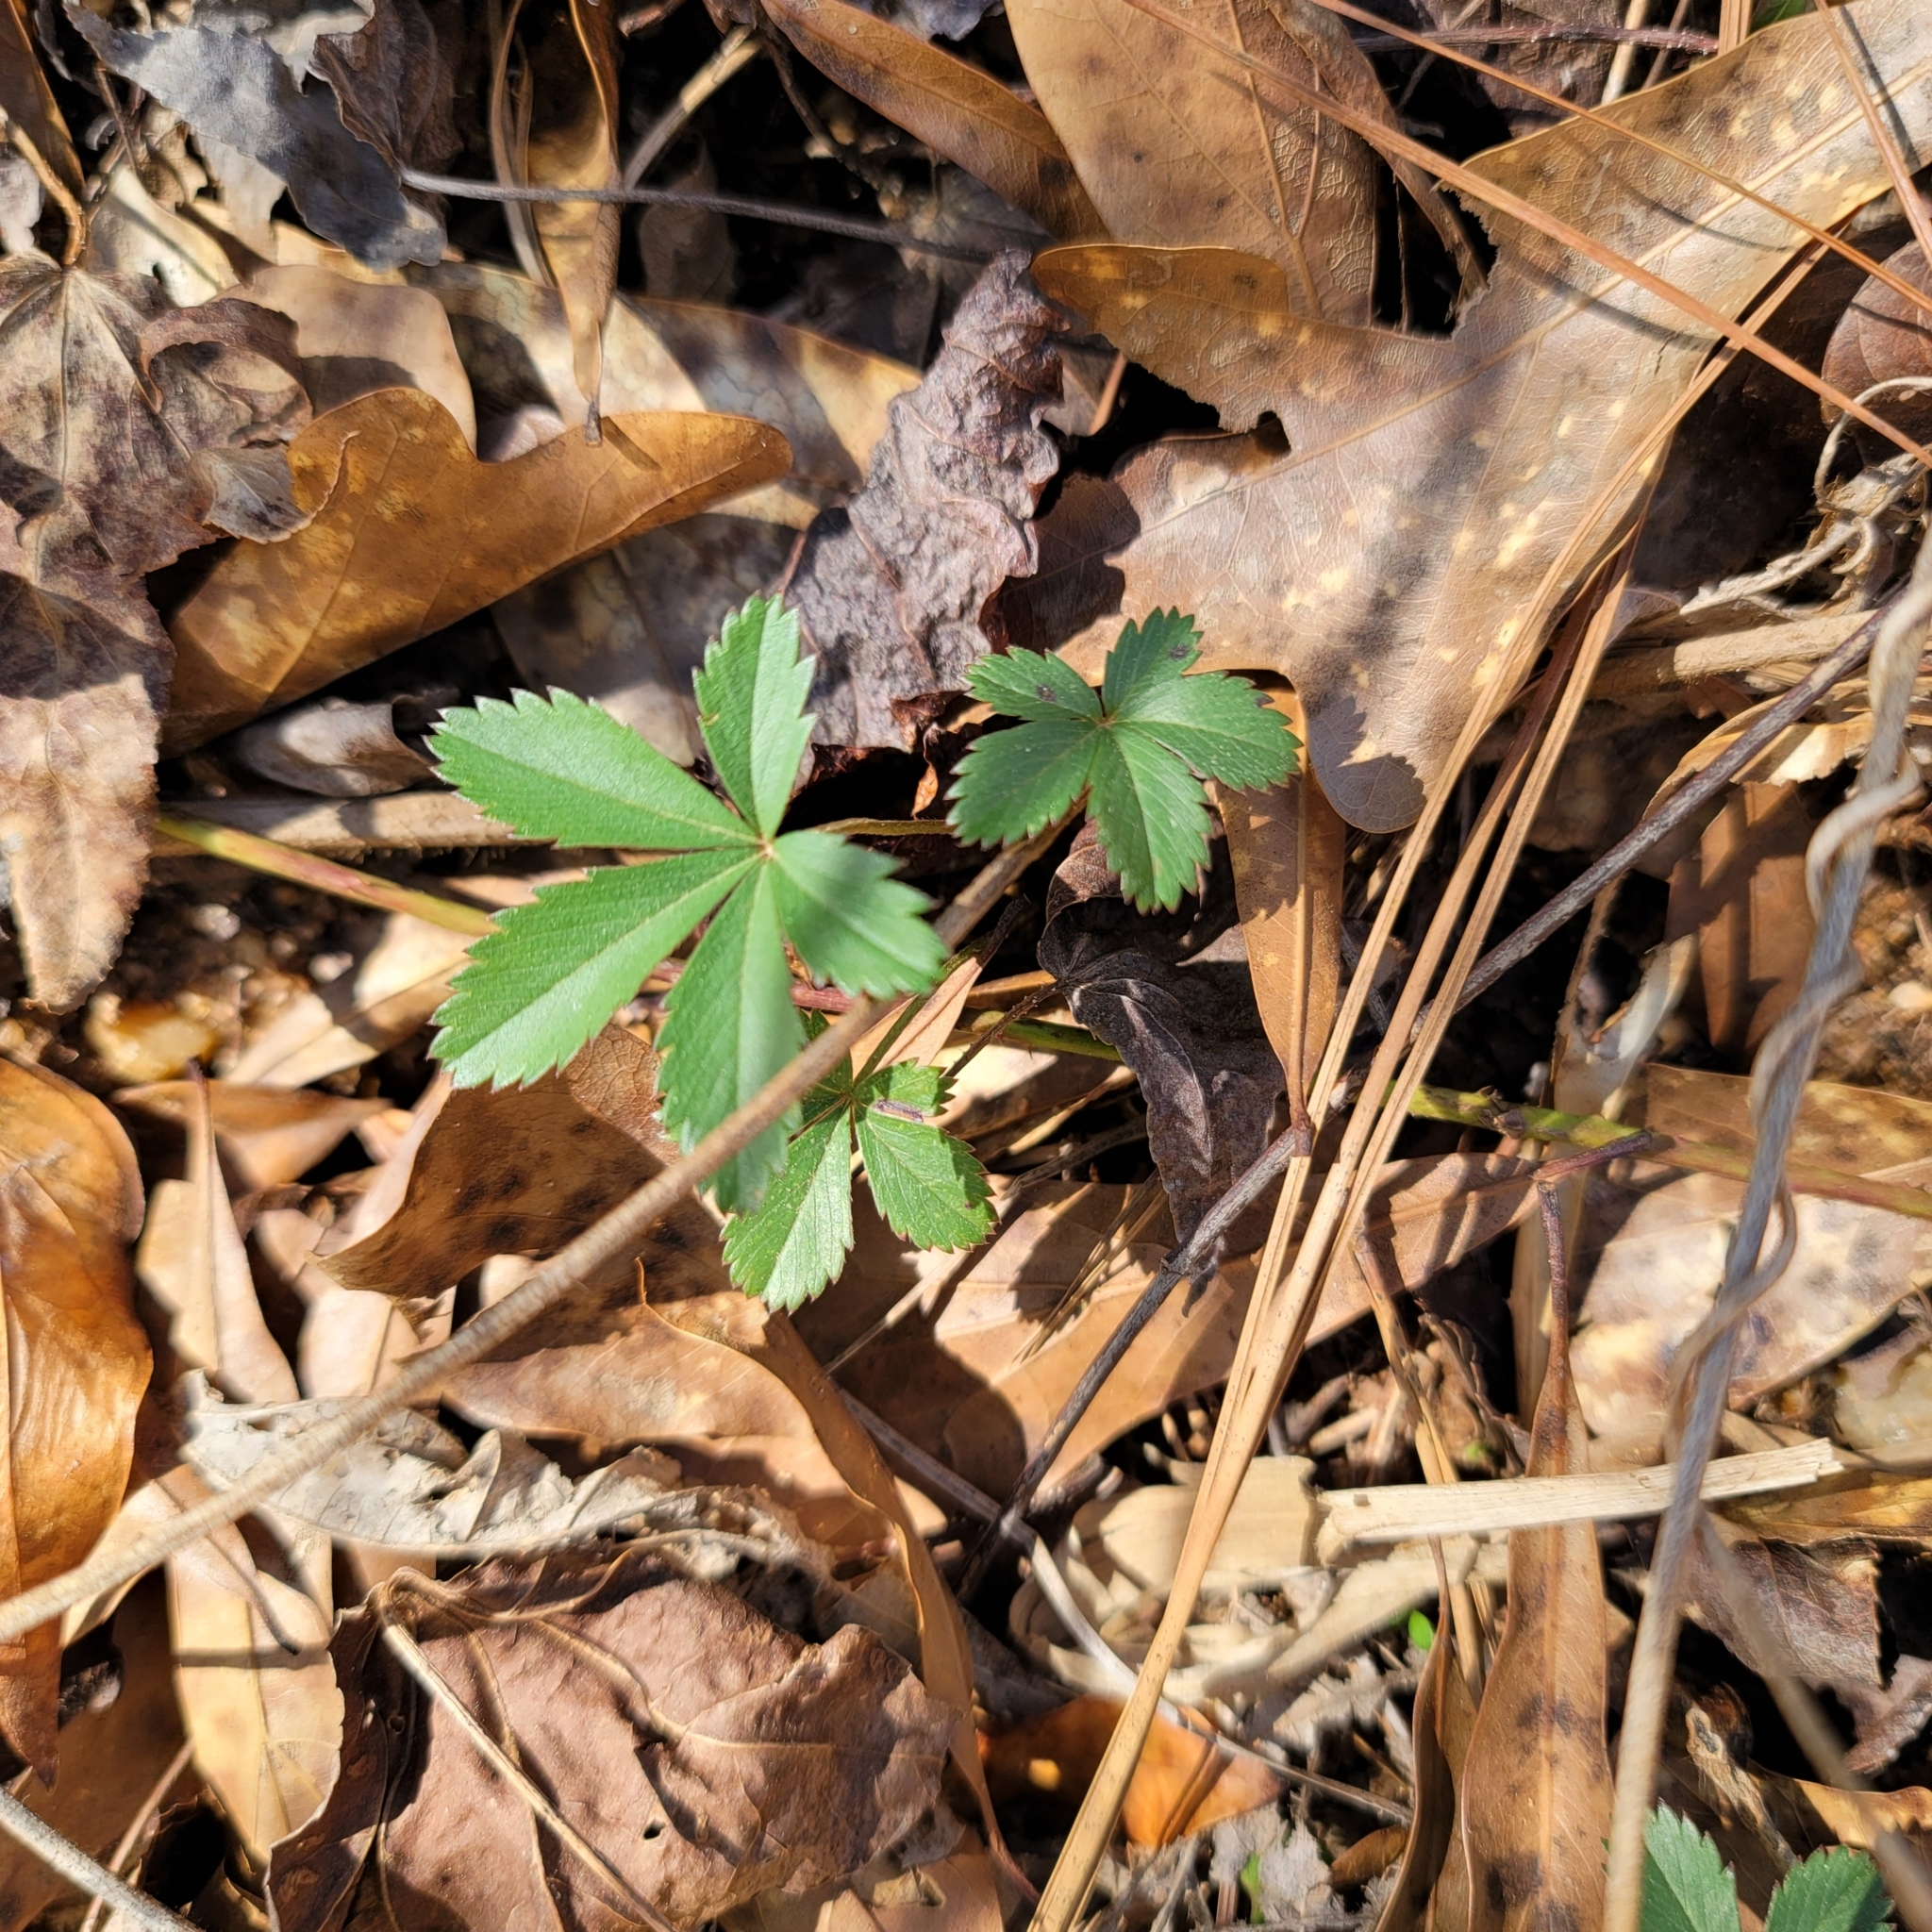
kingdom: Plantae
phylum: Tracheophyta
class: Magnoliopsida
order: Rosales
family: Rosaceae
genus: Potentilla
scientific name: Potentilla simplex
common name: Old field cinquefoil
